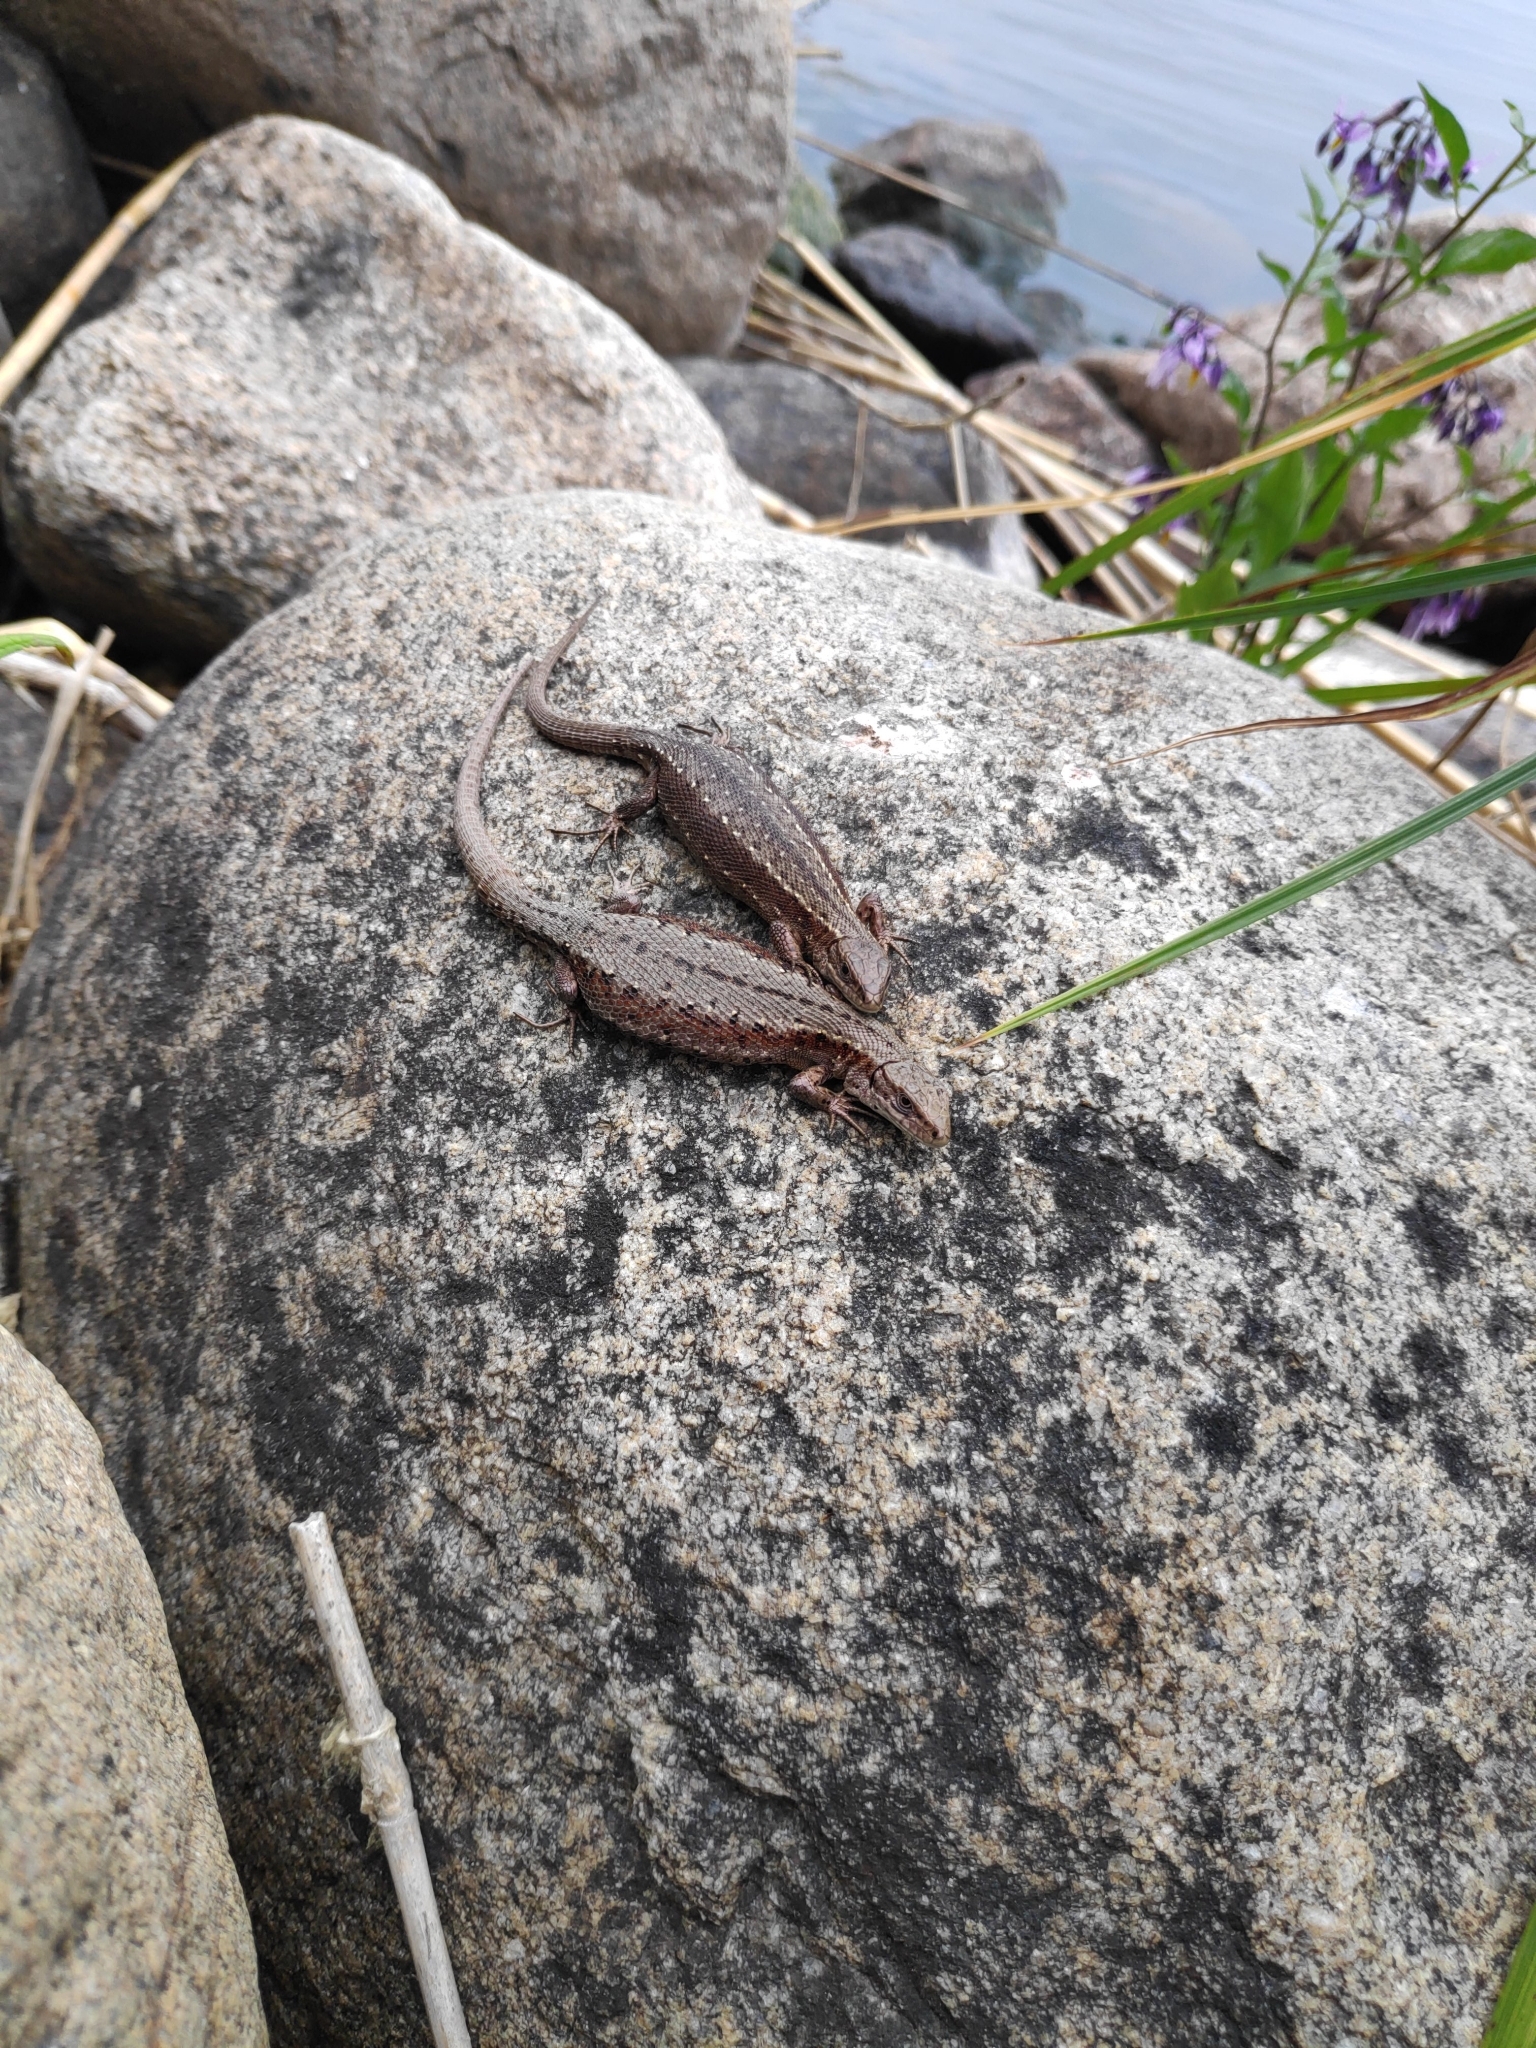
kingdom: Animalia
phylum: Chordata
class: Squamata
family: Lacertidae
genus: Zootoca
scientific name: Zootoca vivipara
